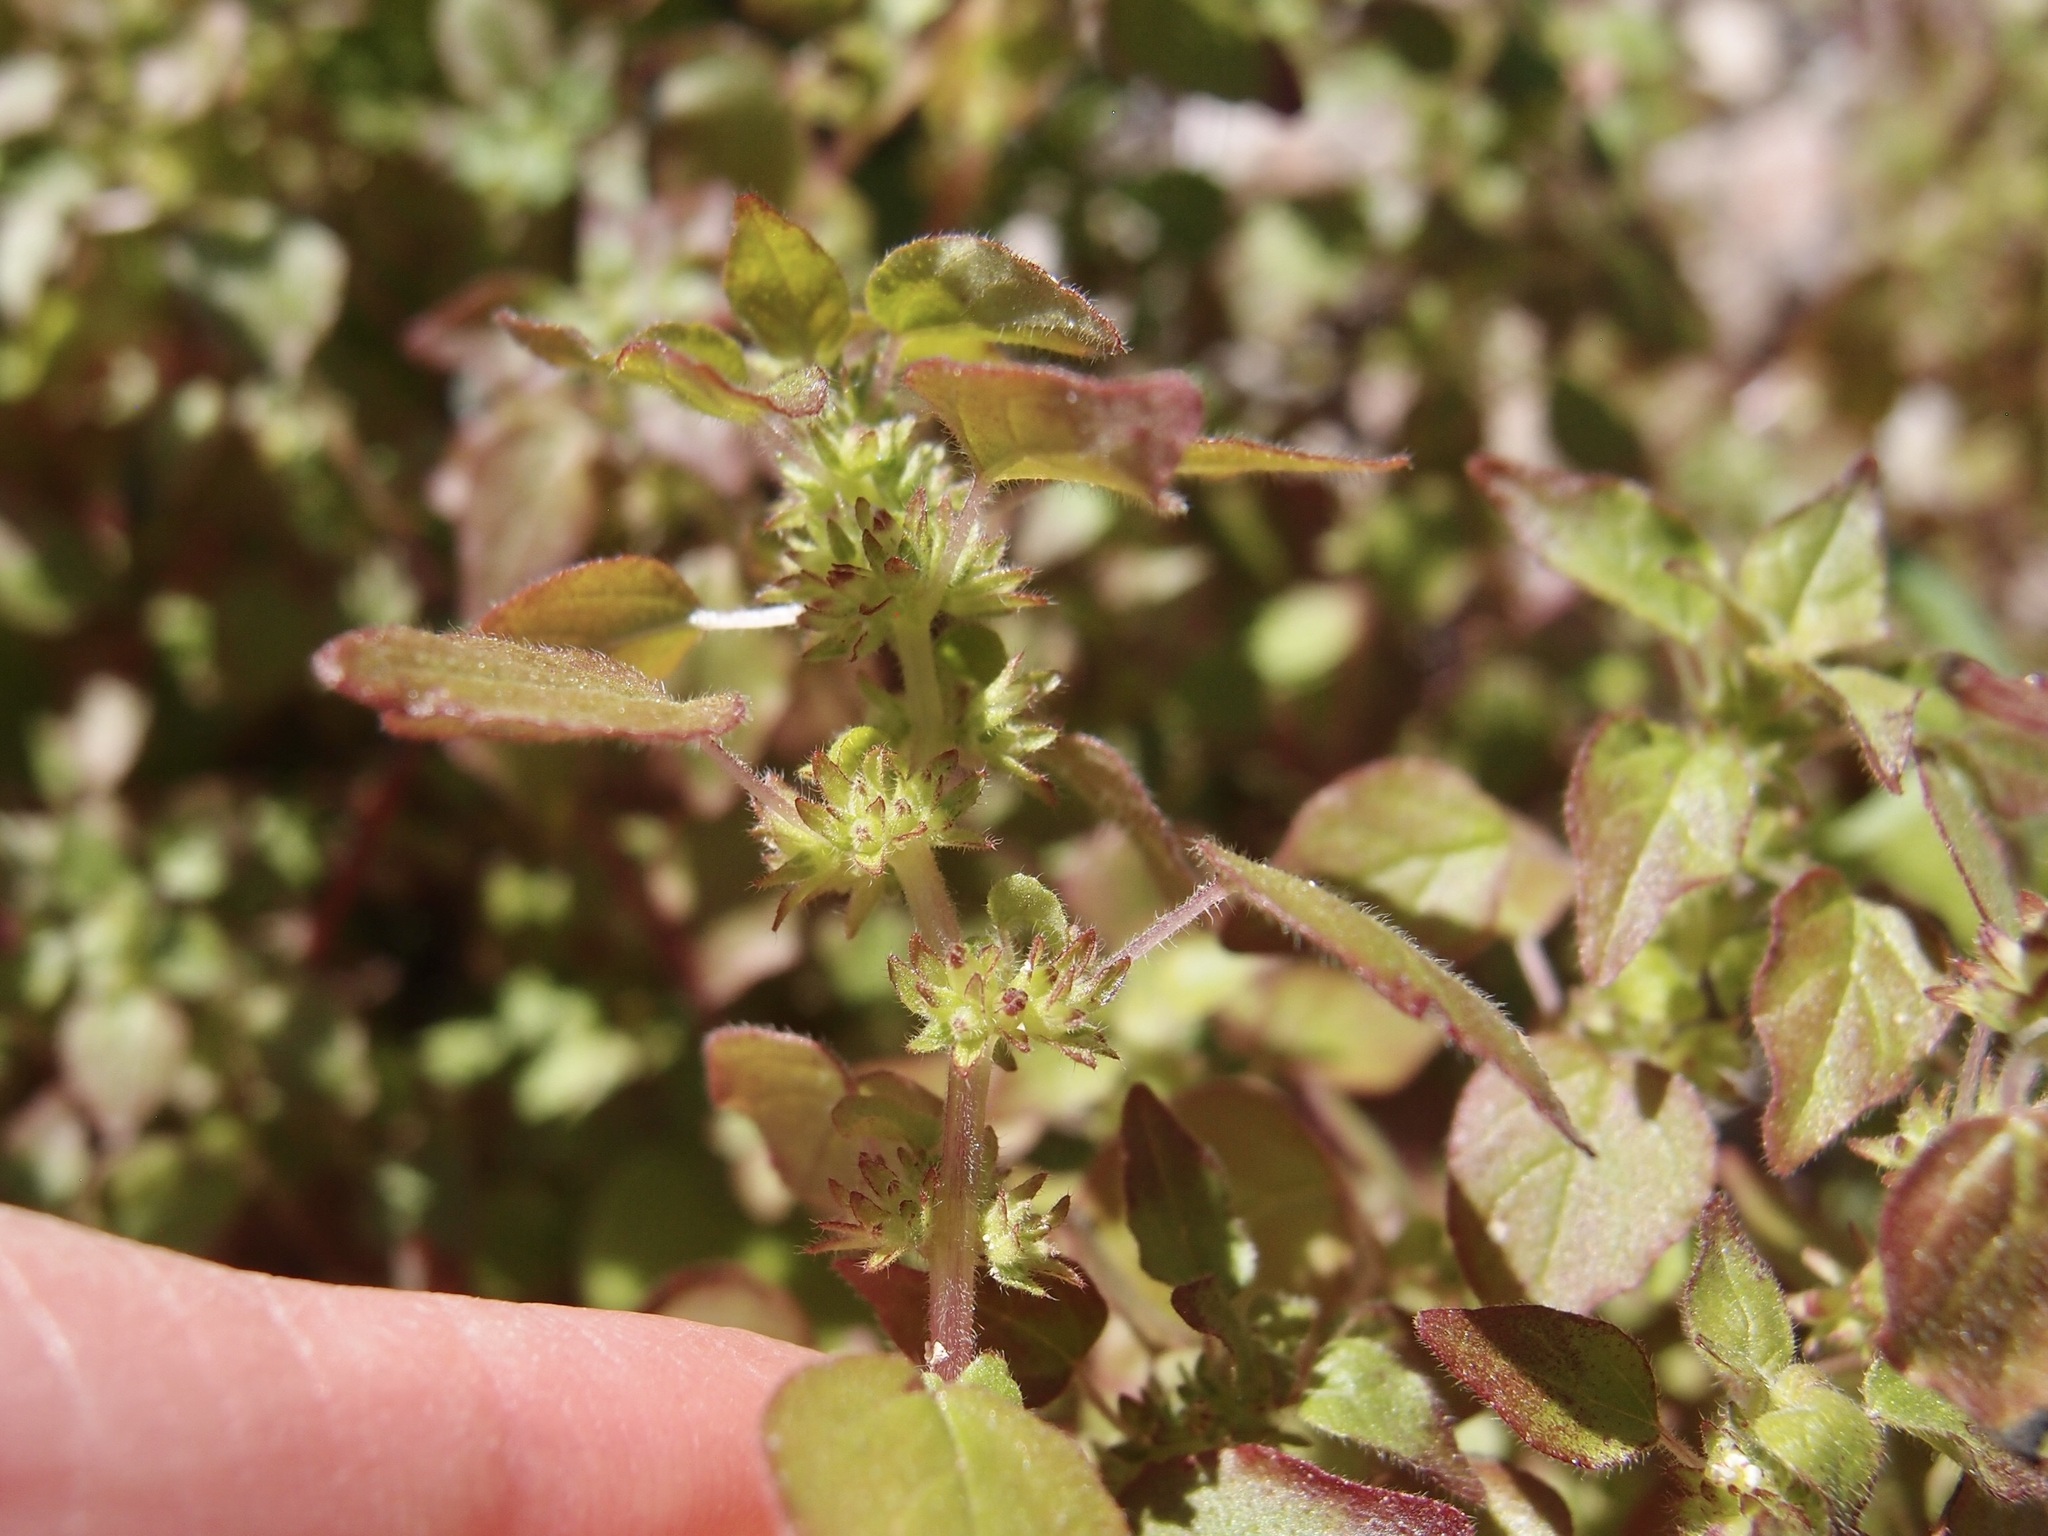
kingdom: Plantae
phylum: Tracheophyta
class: Magnoliopsida
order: Rosales
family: Urticaceae
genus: Parietaria
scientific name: Parietaria hespera
